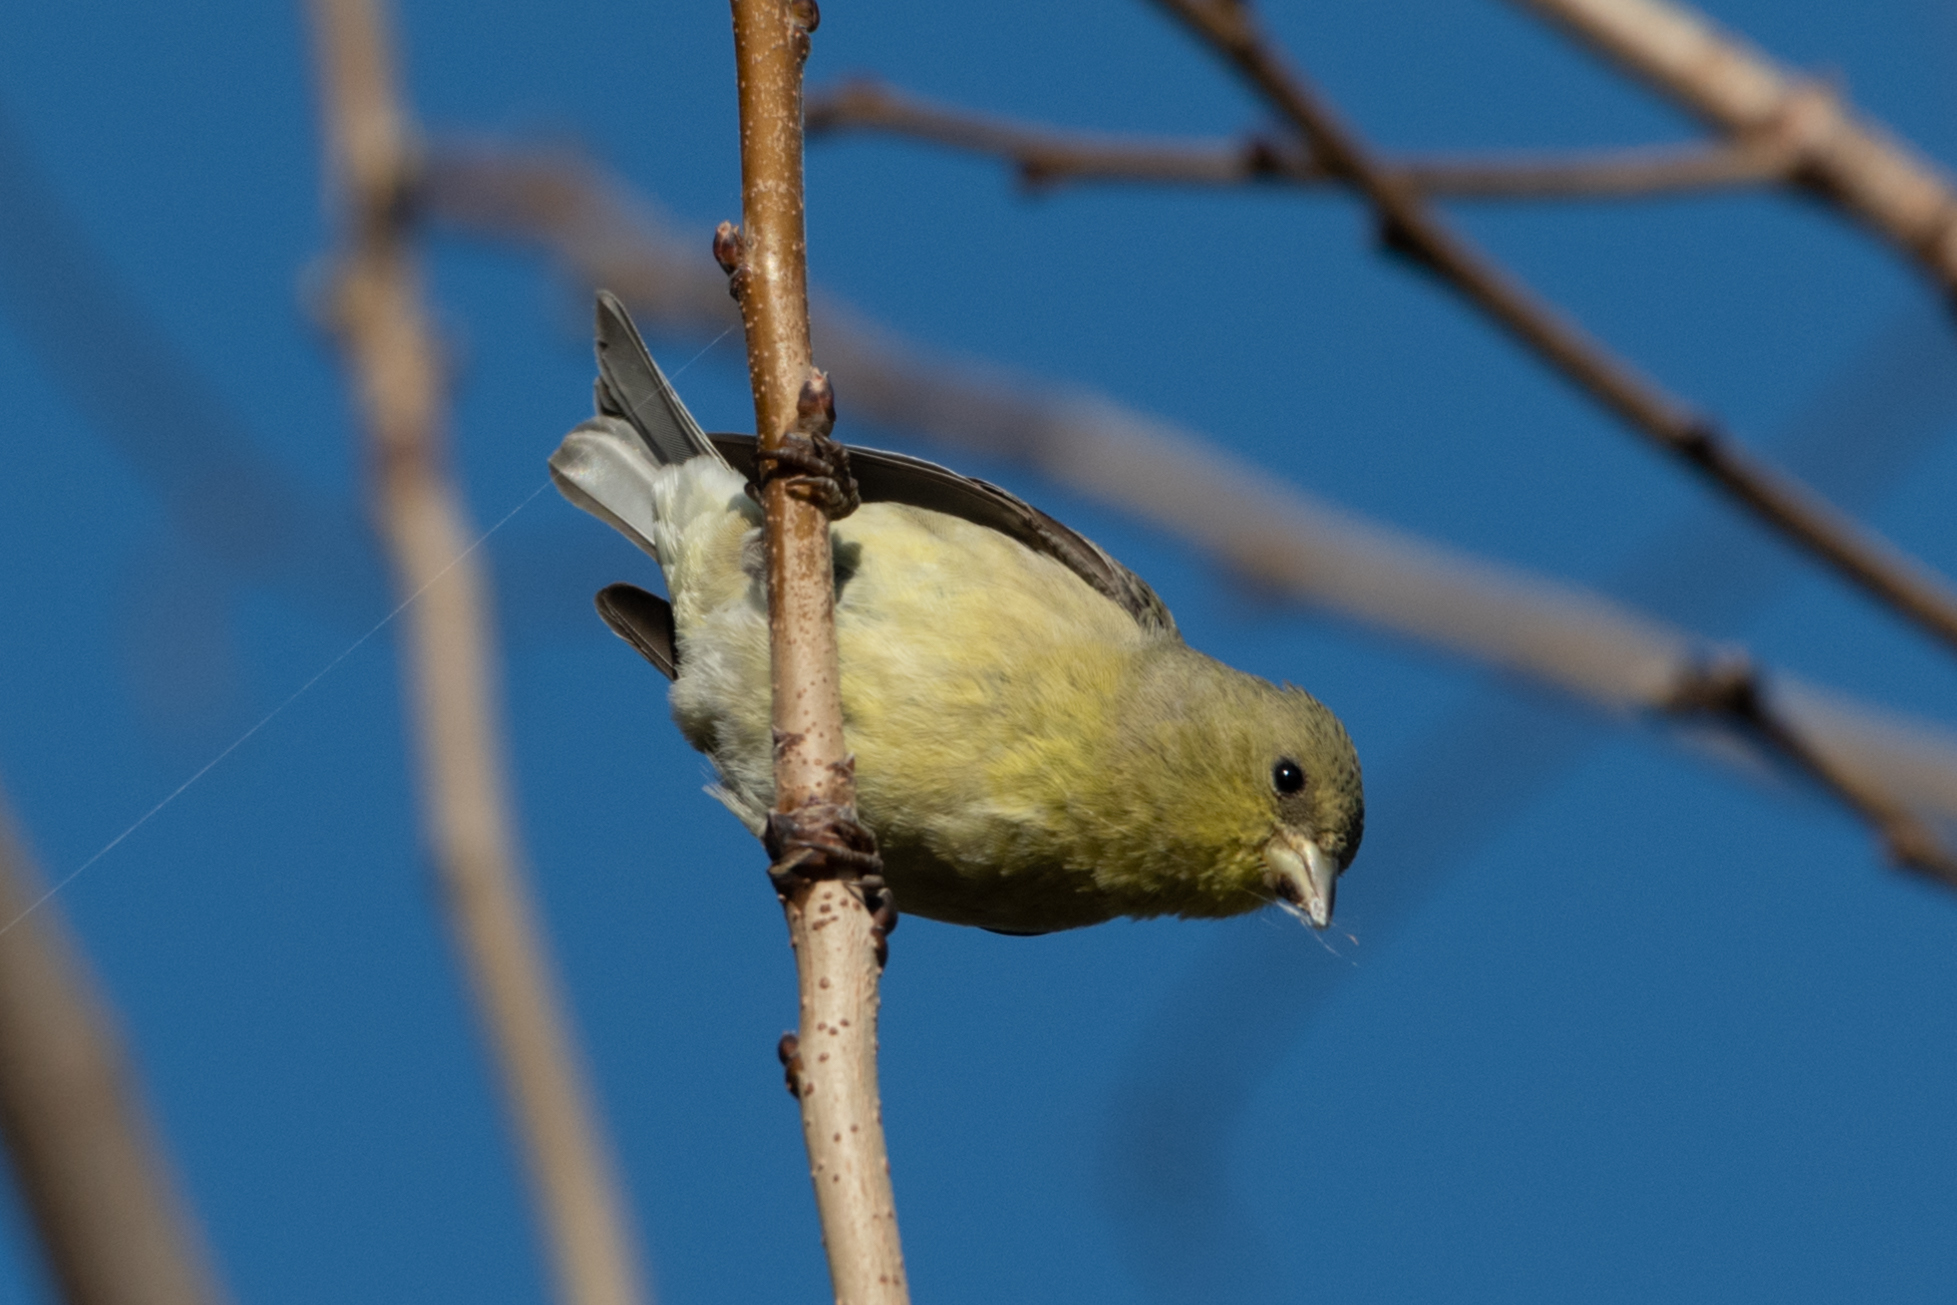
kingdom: Animalia
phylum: Chordata
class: Aves
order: Passeriformes
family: Fringillidae
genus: Spinus
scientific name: Spinus psaltria
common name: Lesser goldfinch
